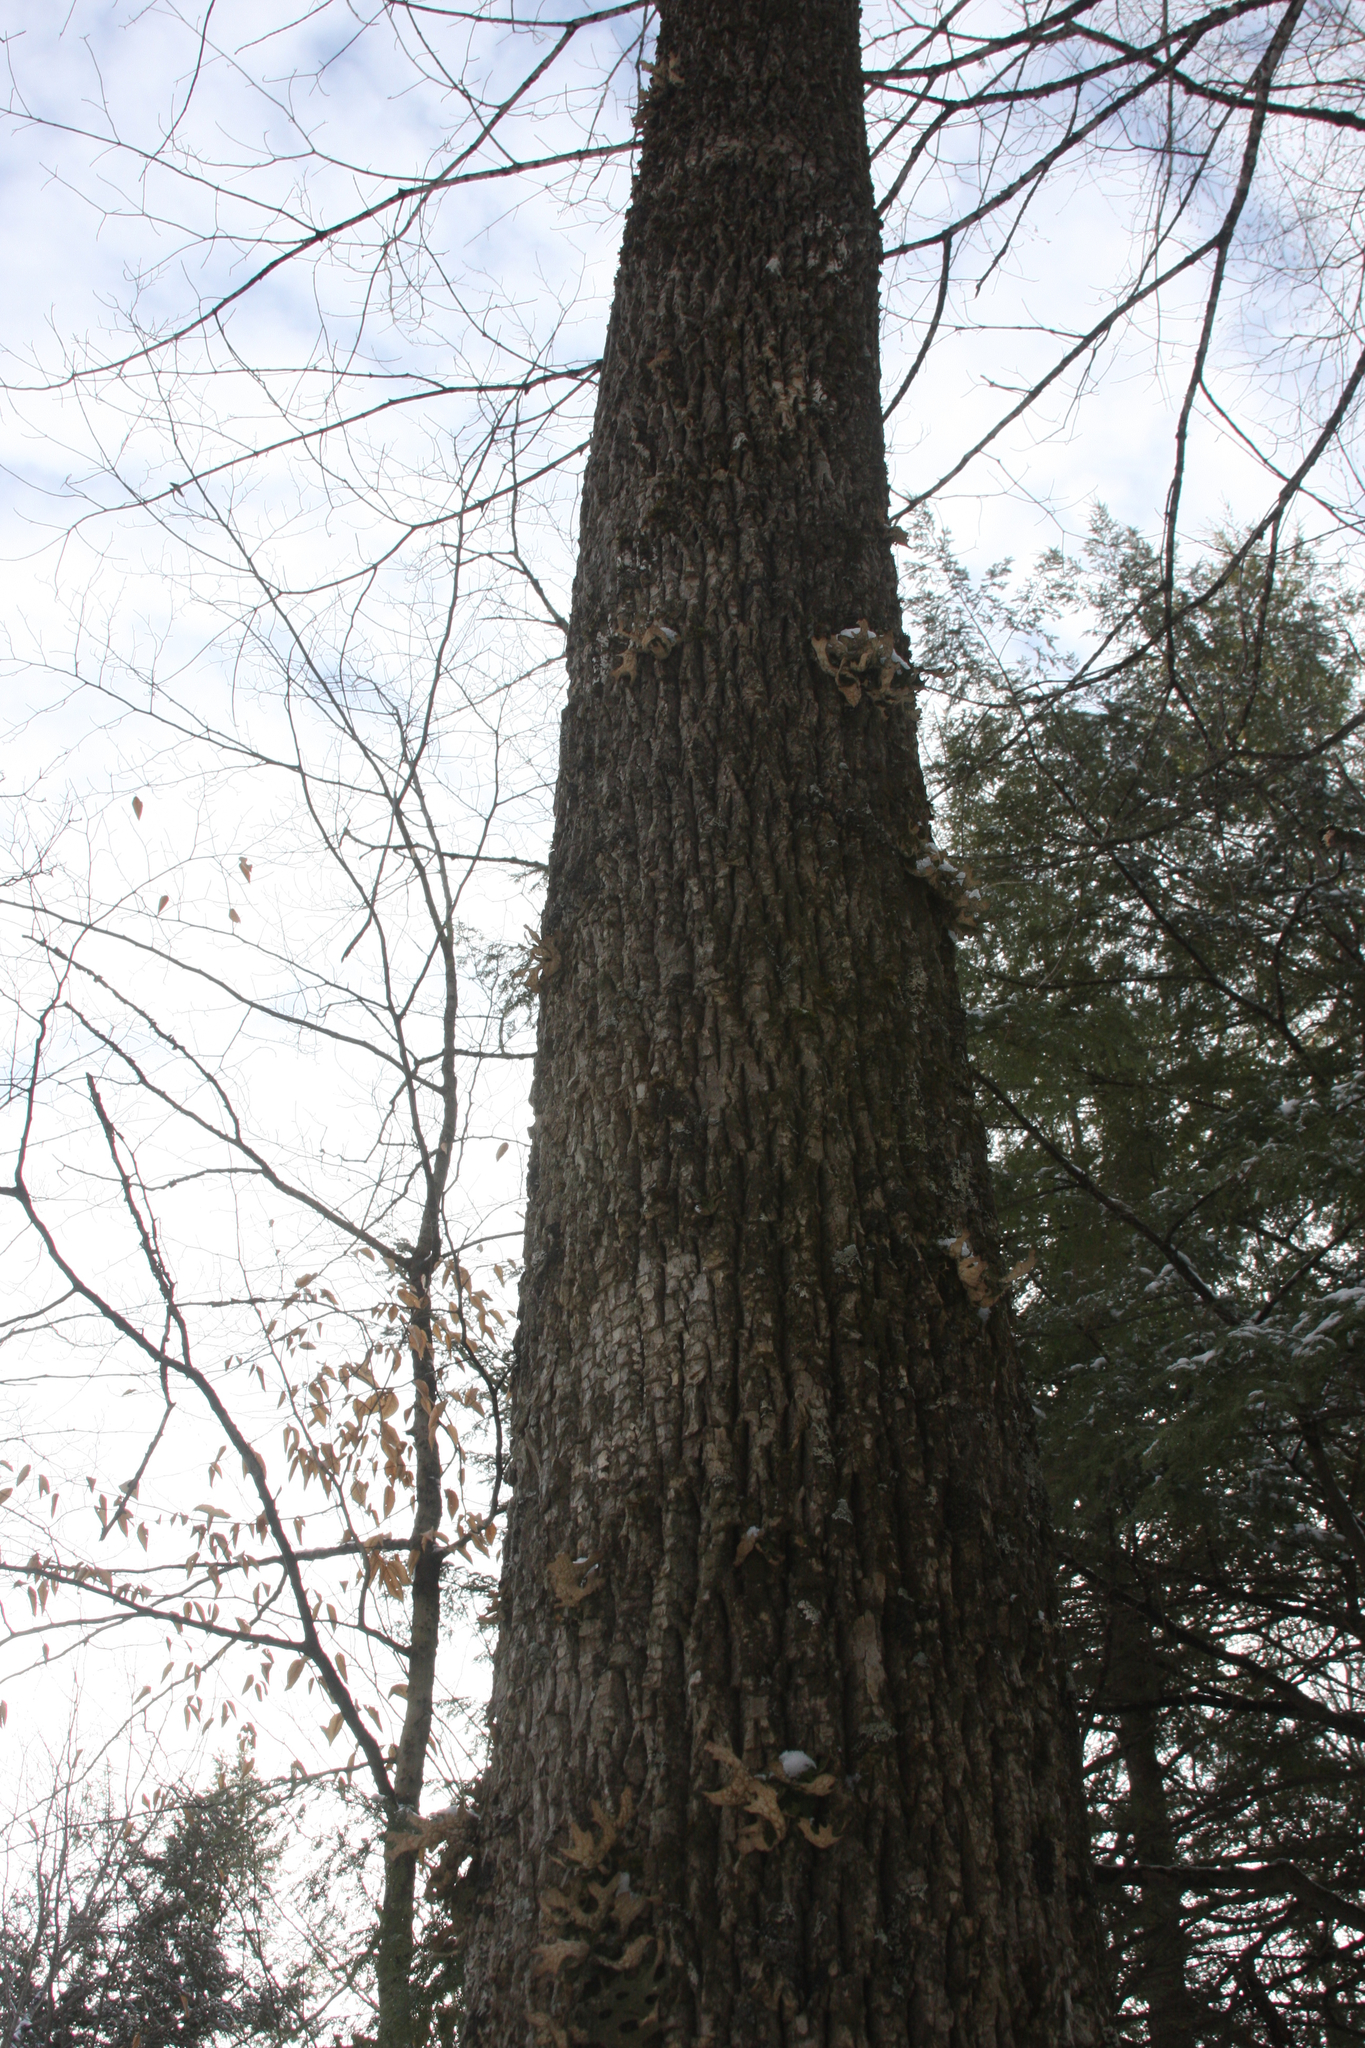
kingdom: Fungi
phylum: Ascomycota
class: Lecanoromycetes
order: Peltigerales
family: Lobariaceae
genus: Lobaria
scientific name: Lobaria pulmonaria
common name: Lungwort
